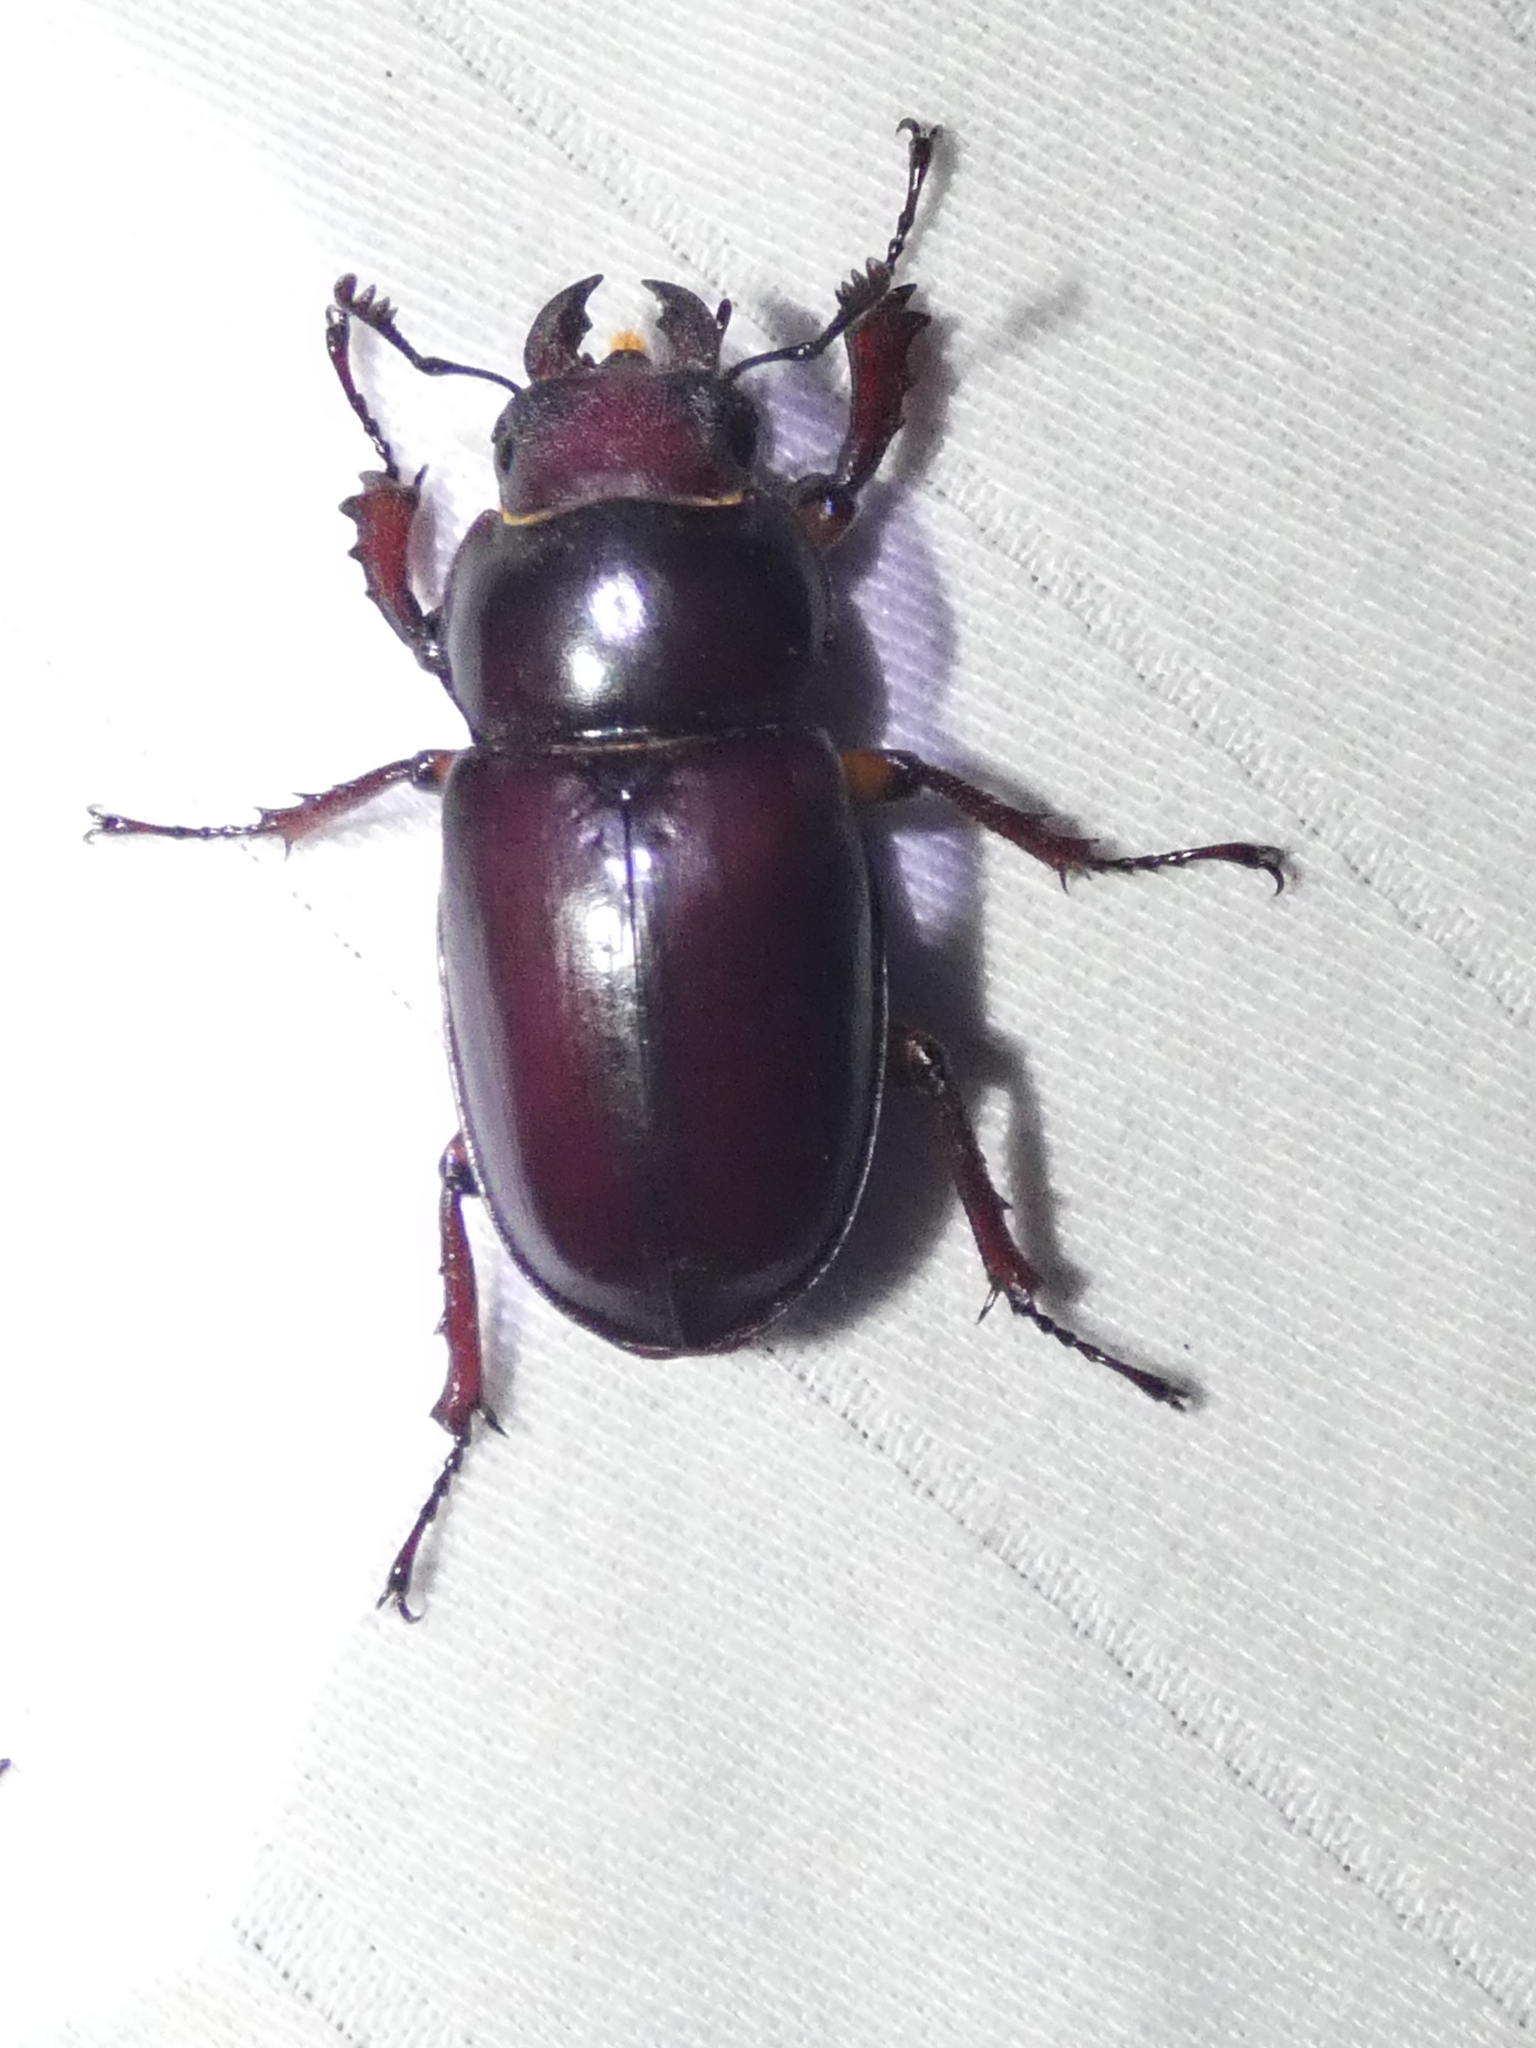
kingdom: Animalia
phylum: Arthropoda
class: Insecta
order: Coleoptera
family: Lucanidae
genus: Lucanus
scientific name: Lucanus capreolus
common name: Stag beetle
